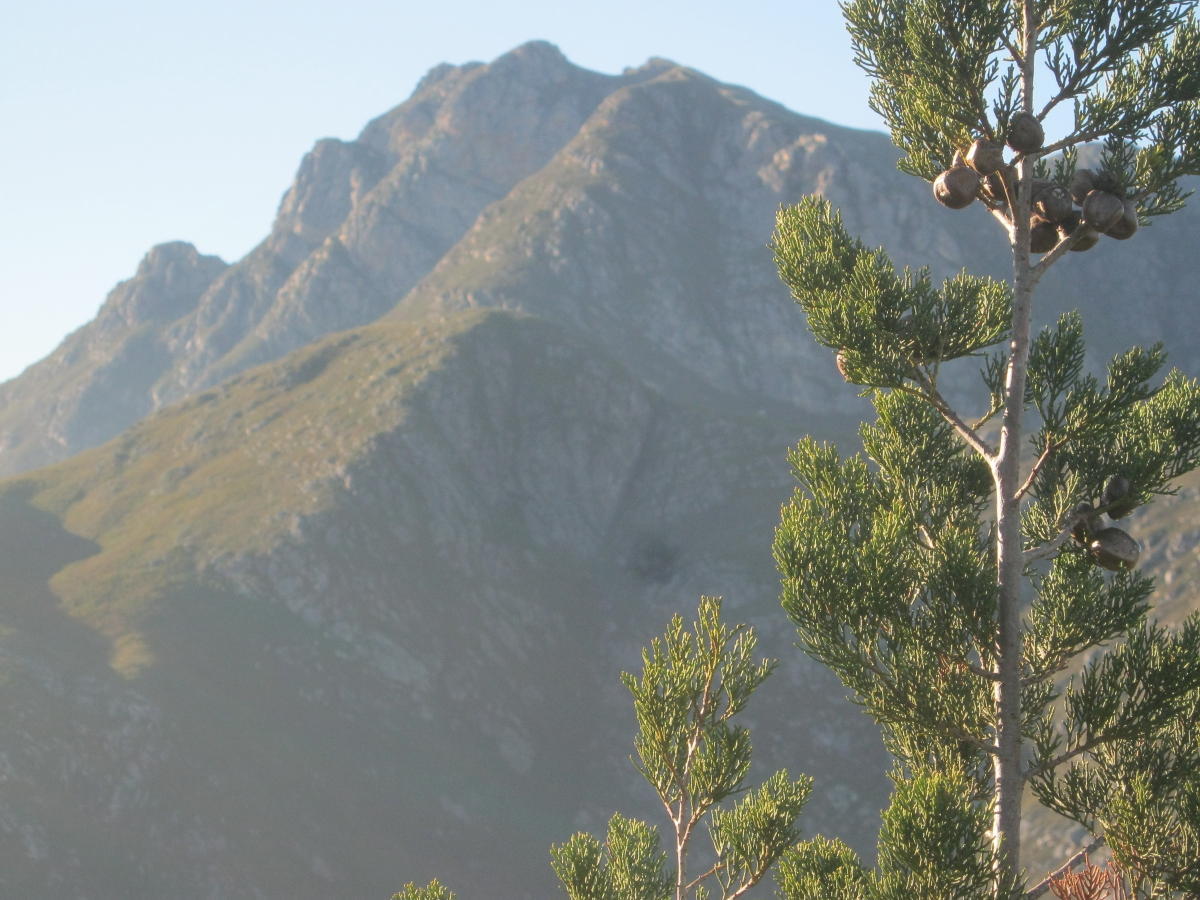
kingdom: Plantae
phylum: Tracheophyta
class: Pinopsida
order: Pinales
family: Cupressaceae
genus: Widdringtonia
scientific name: Widdringtonia nodiflora
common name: Cape cypress
